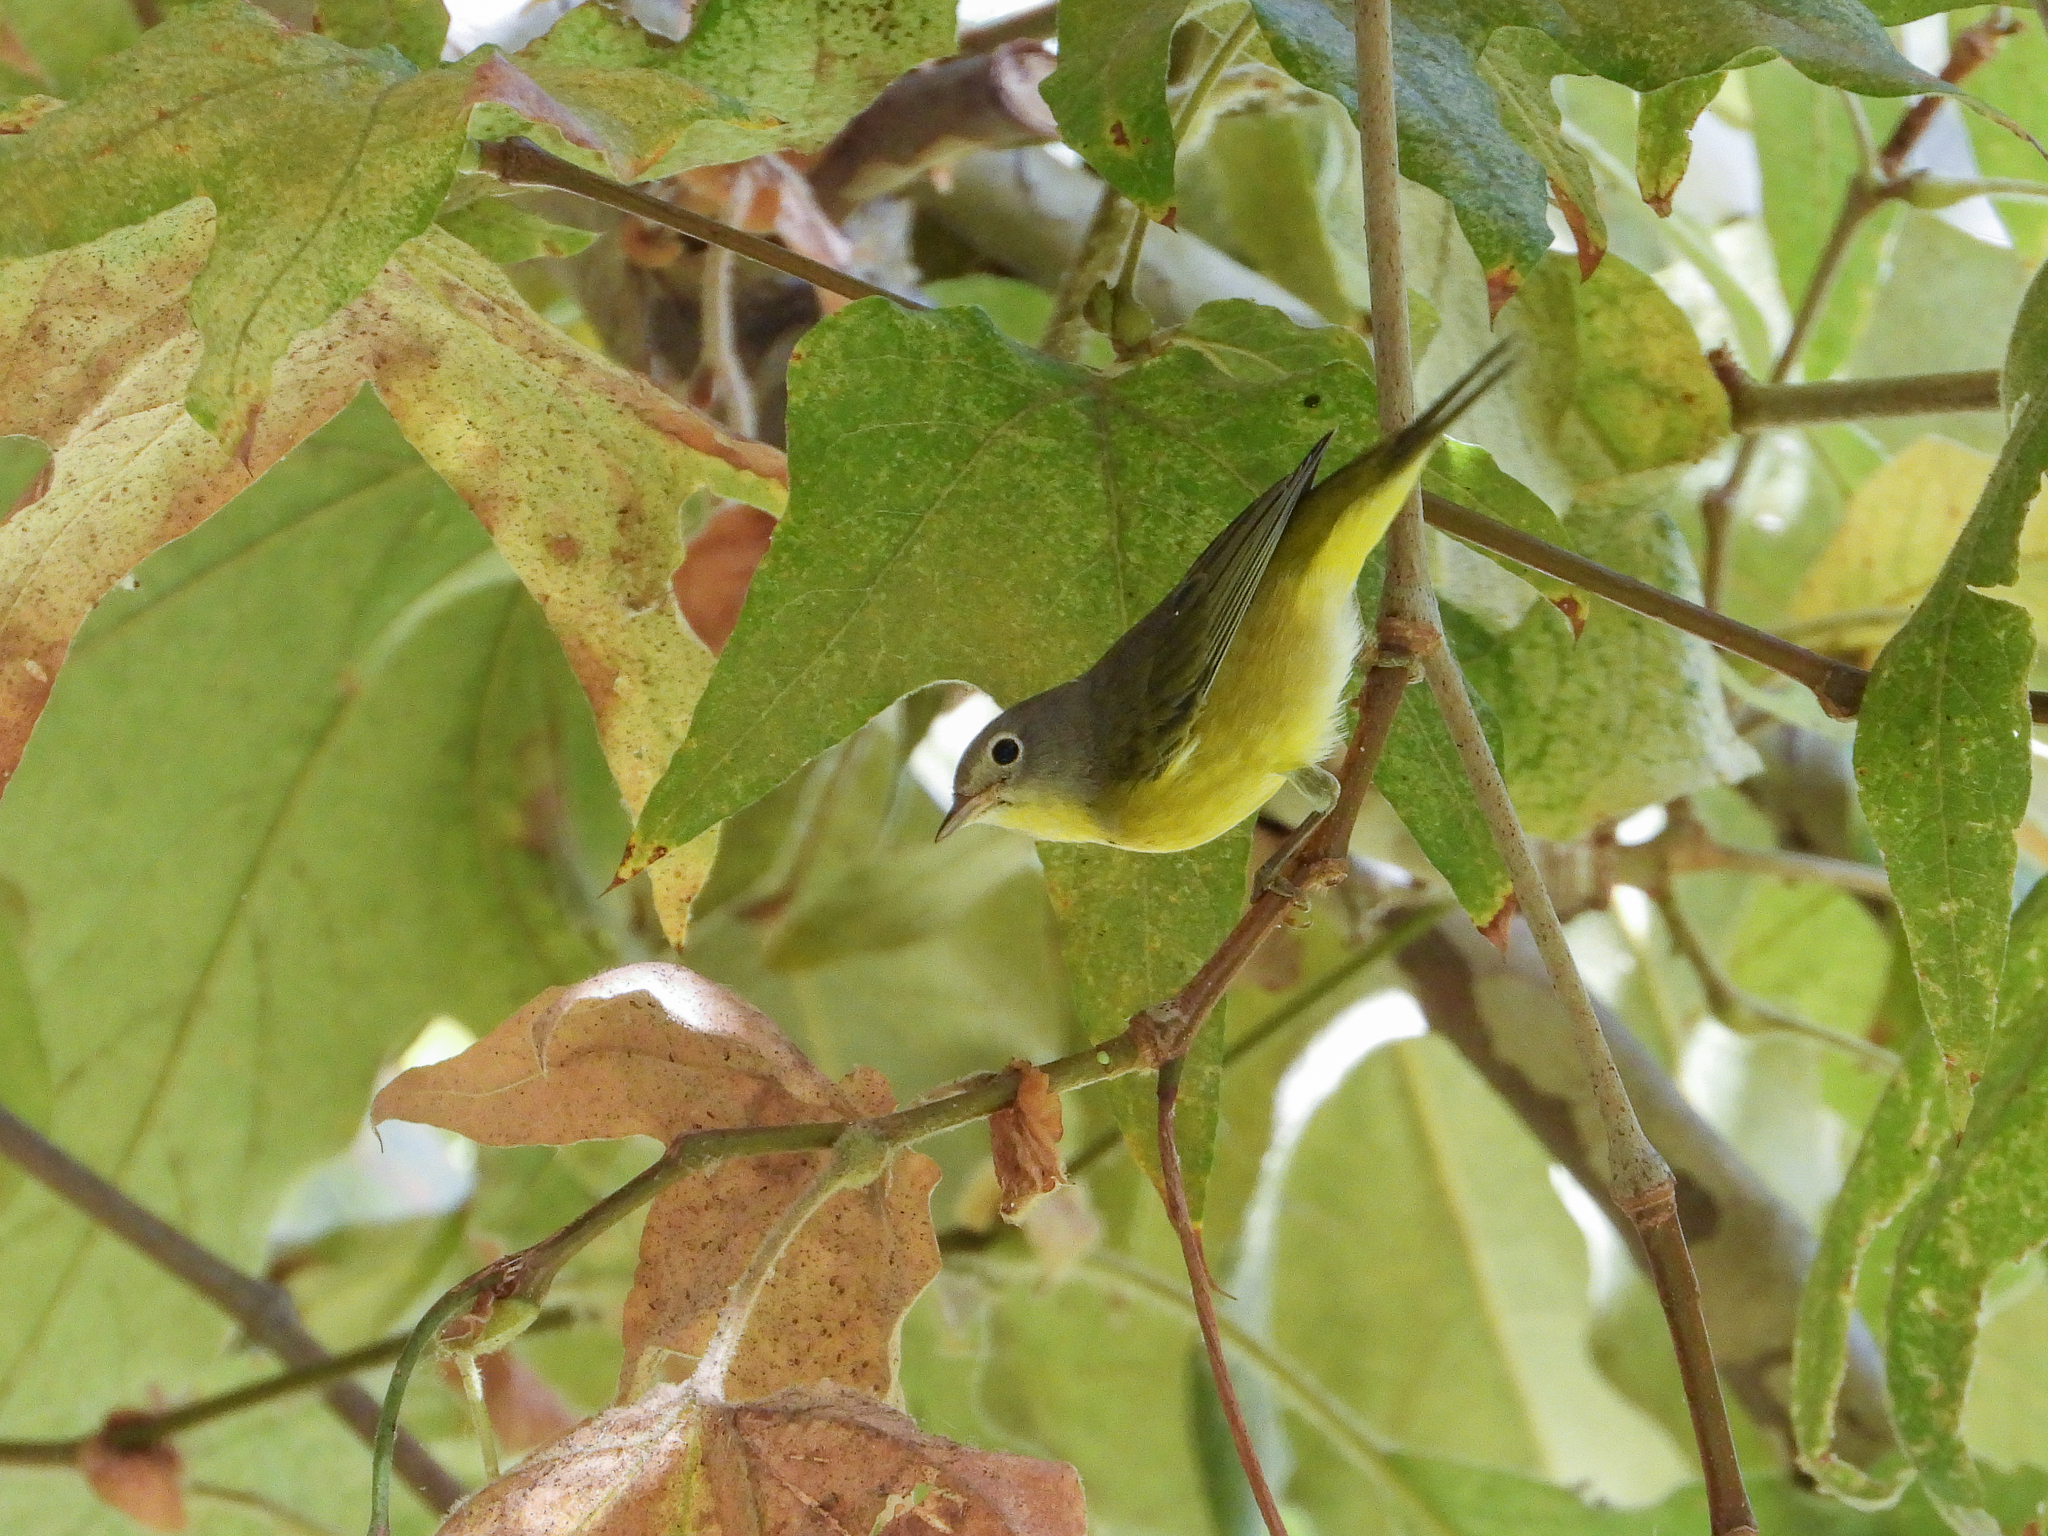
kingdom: Animalia
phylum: Chordata
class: Aves
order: Passeriformes
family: Parulidae
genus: Leiothlypis
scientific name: Leiothlypis ruficapilla
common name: Nashville warbler
